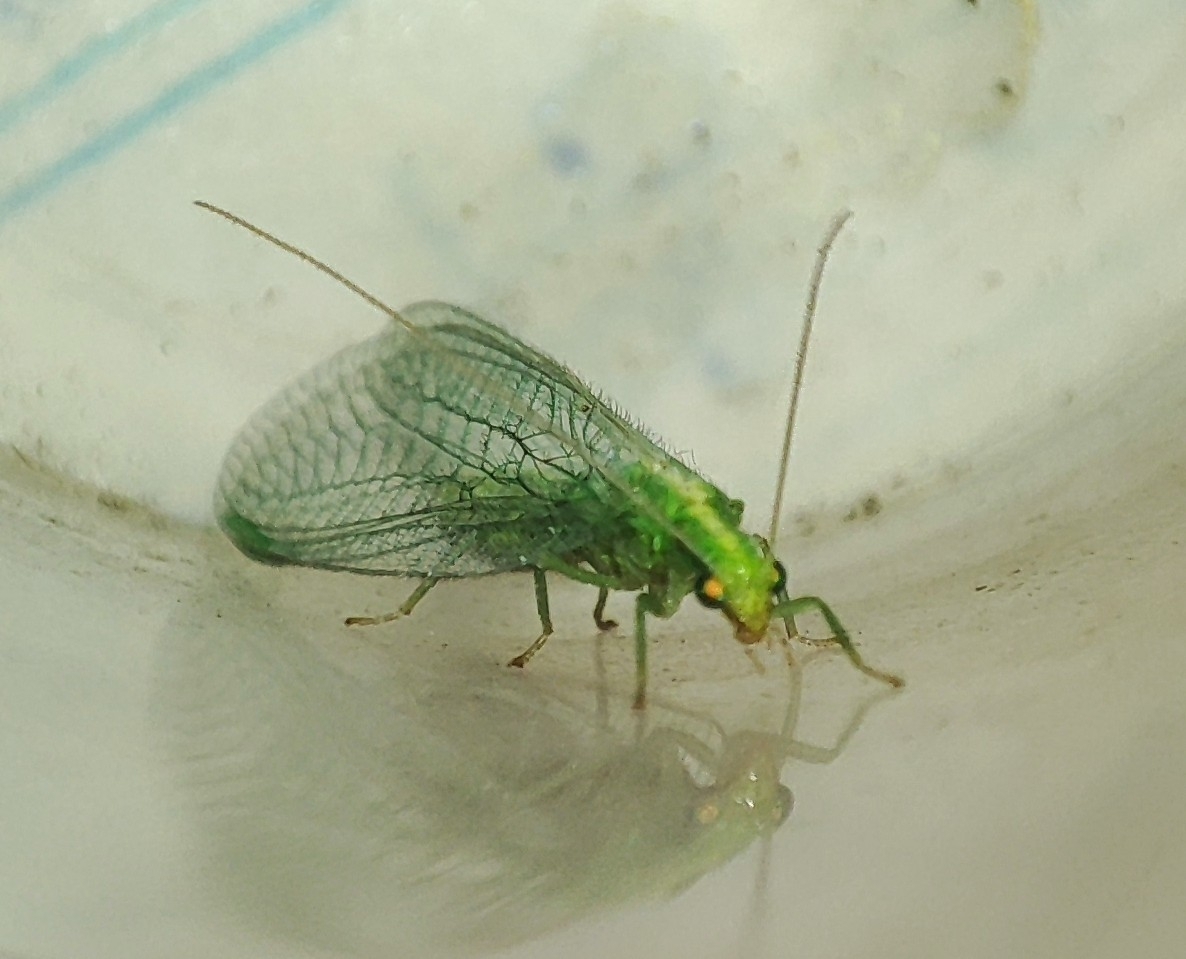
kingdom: Animalia
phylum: Arthropoda
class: Insecta
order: Neuroptera
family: Chrysopidae
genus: Chrysoperla
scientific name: Chrysoperla
